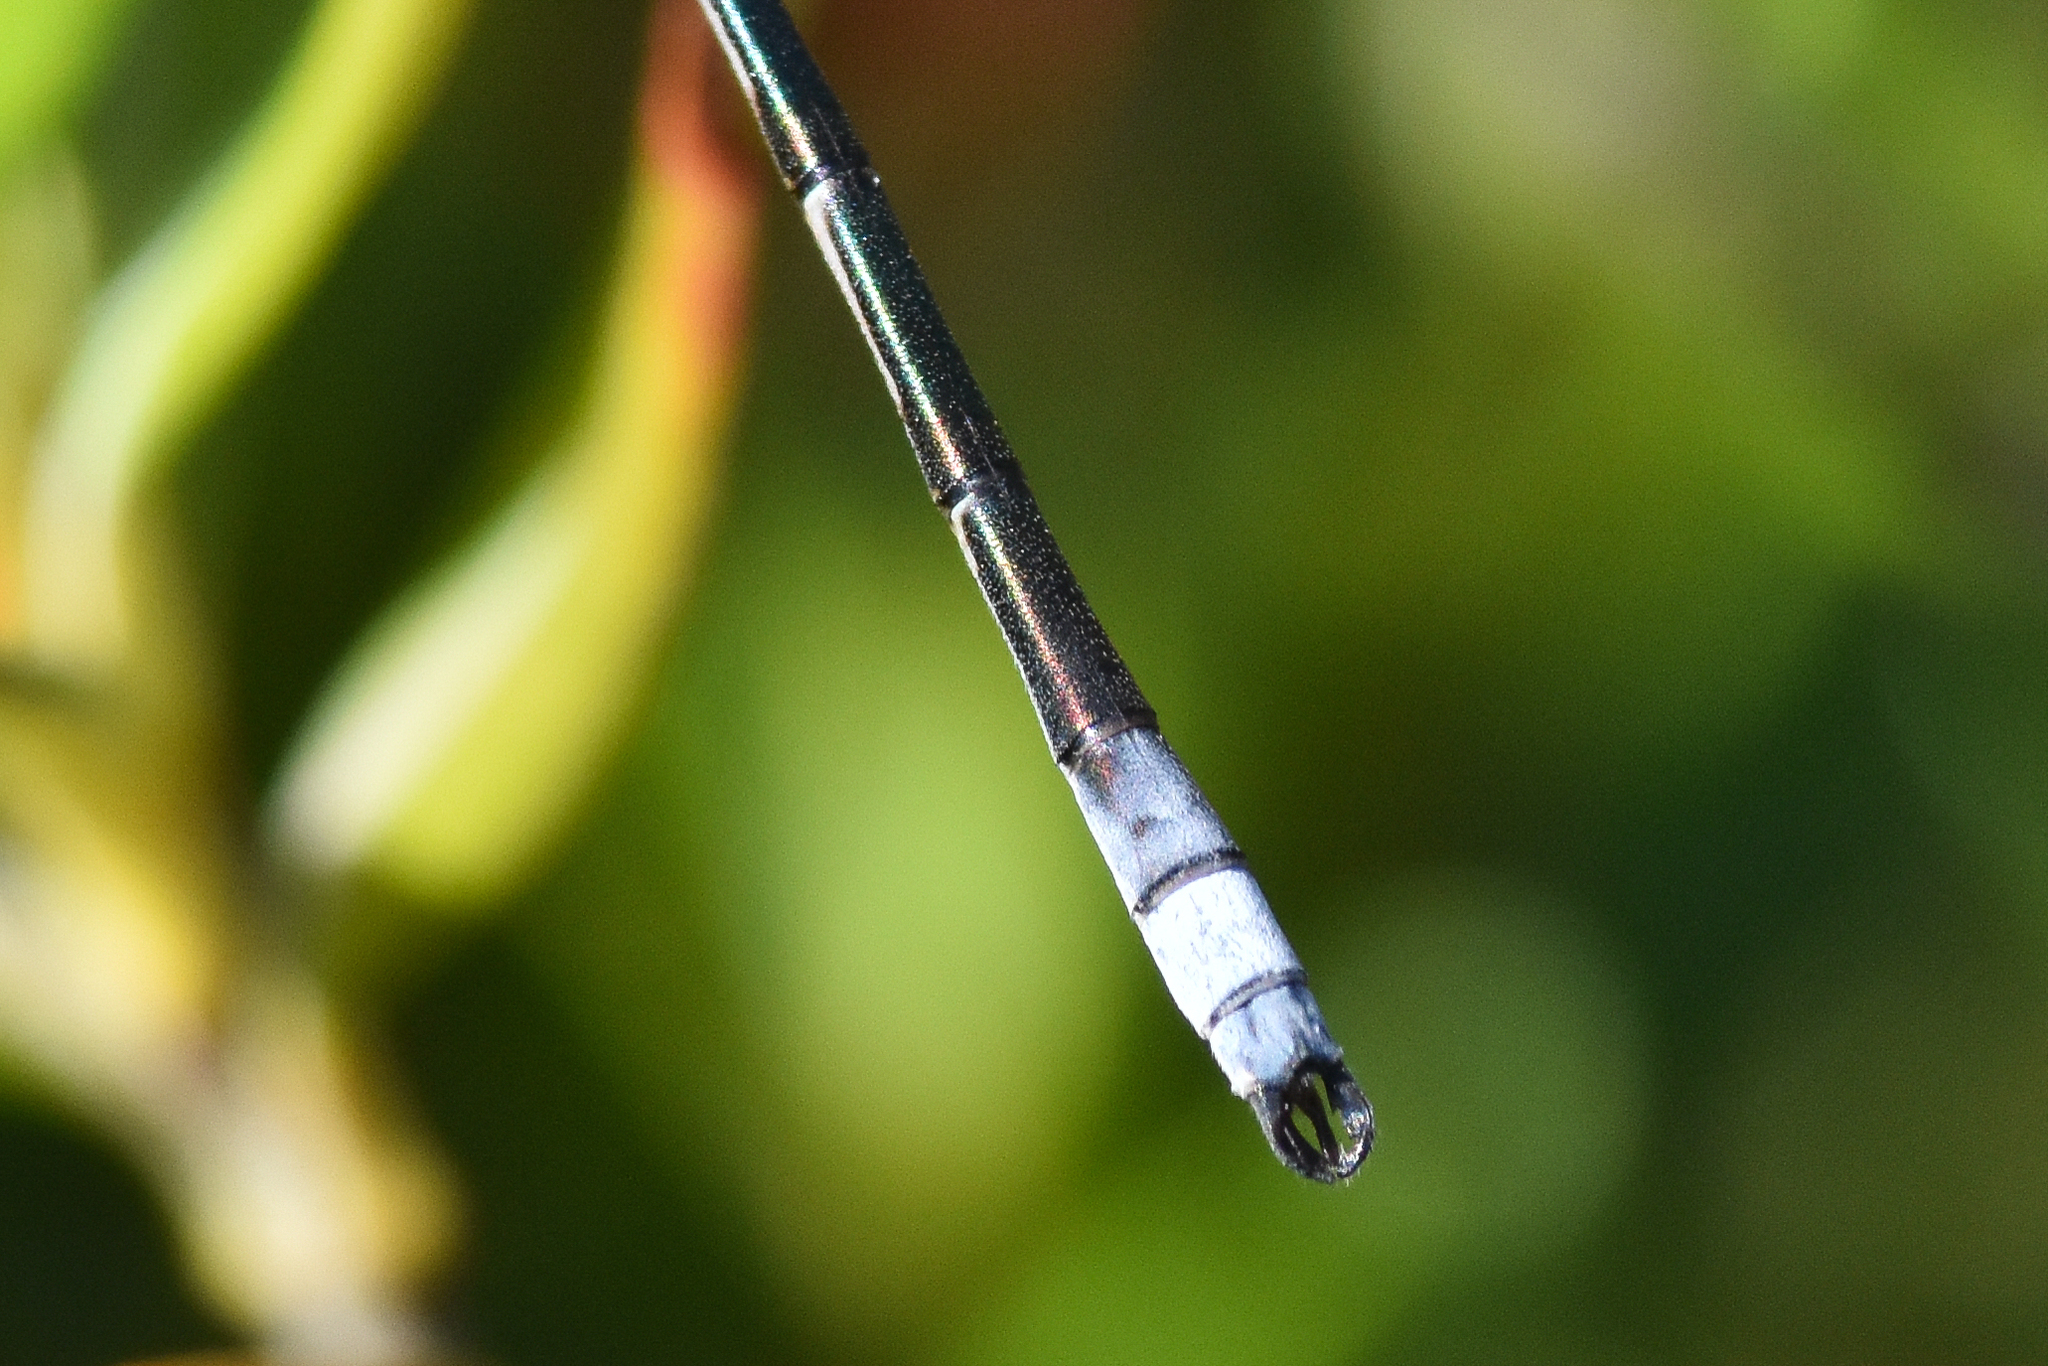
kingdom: Animalia
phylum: Arthropoda
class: Insecta
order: Odonata
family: Lestidae
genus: Lestes
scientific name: Lestes disjunctus
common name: Northern spreadwing
